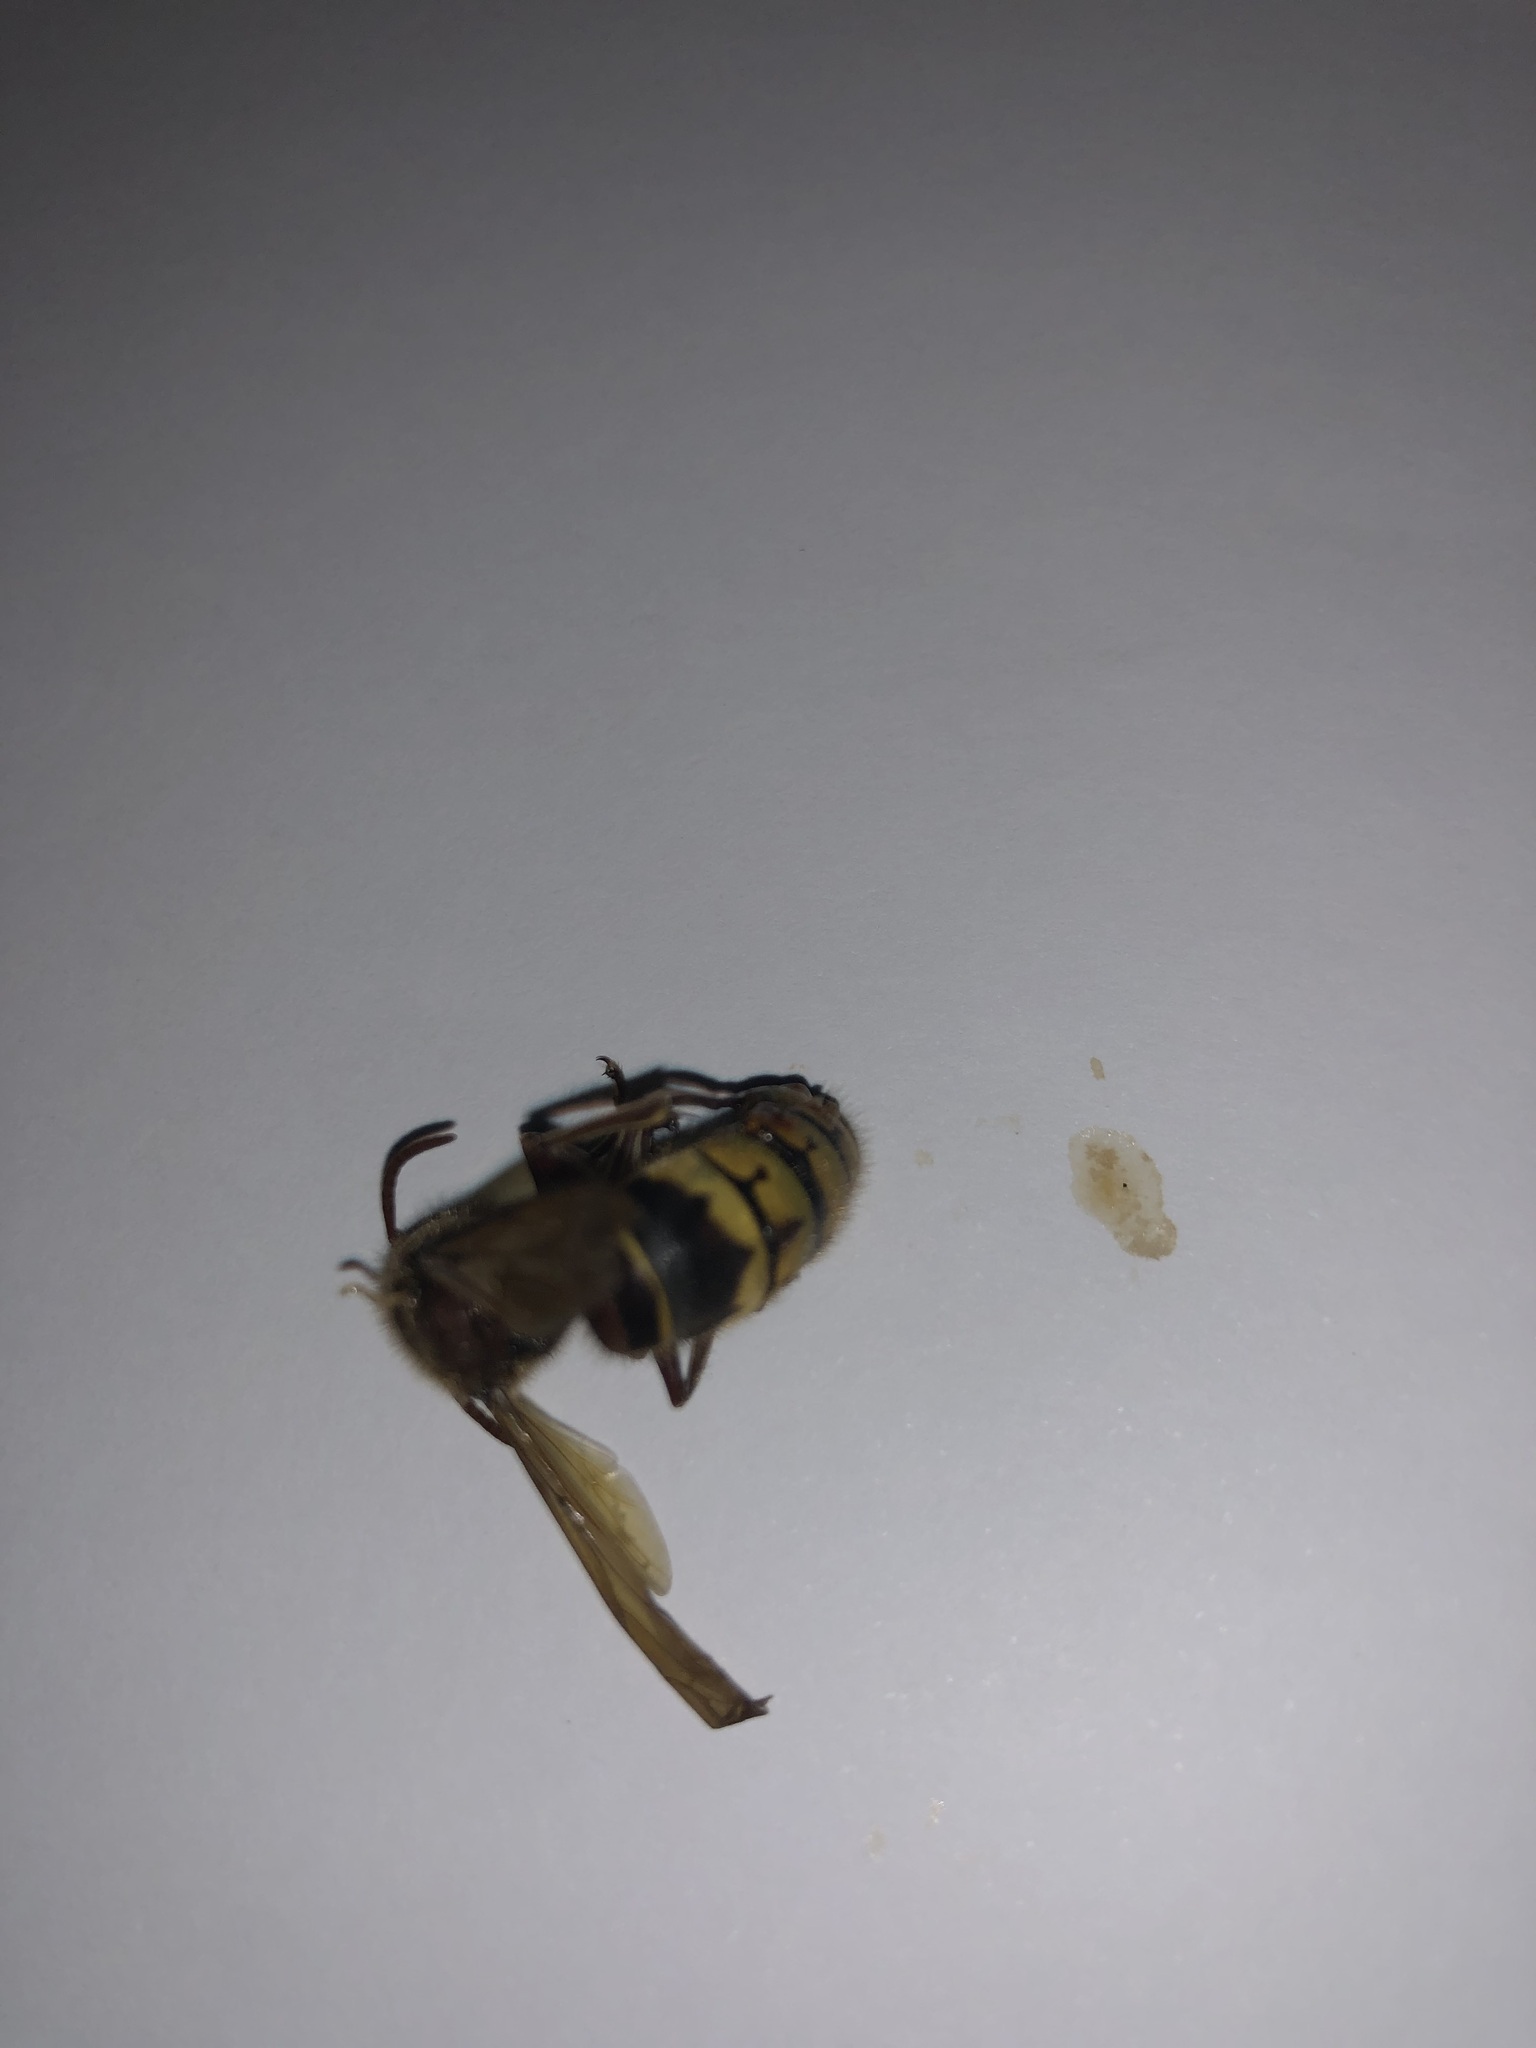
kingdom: Animalia
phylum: Arthropoda
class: Insecta
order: Hymenoptera
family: Vespidae
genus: Vespa
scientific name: Vespa crabro
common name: Hornet
